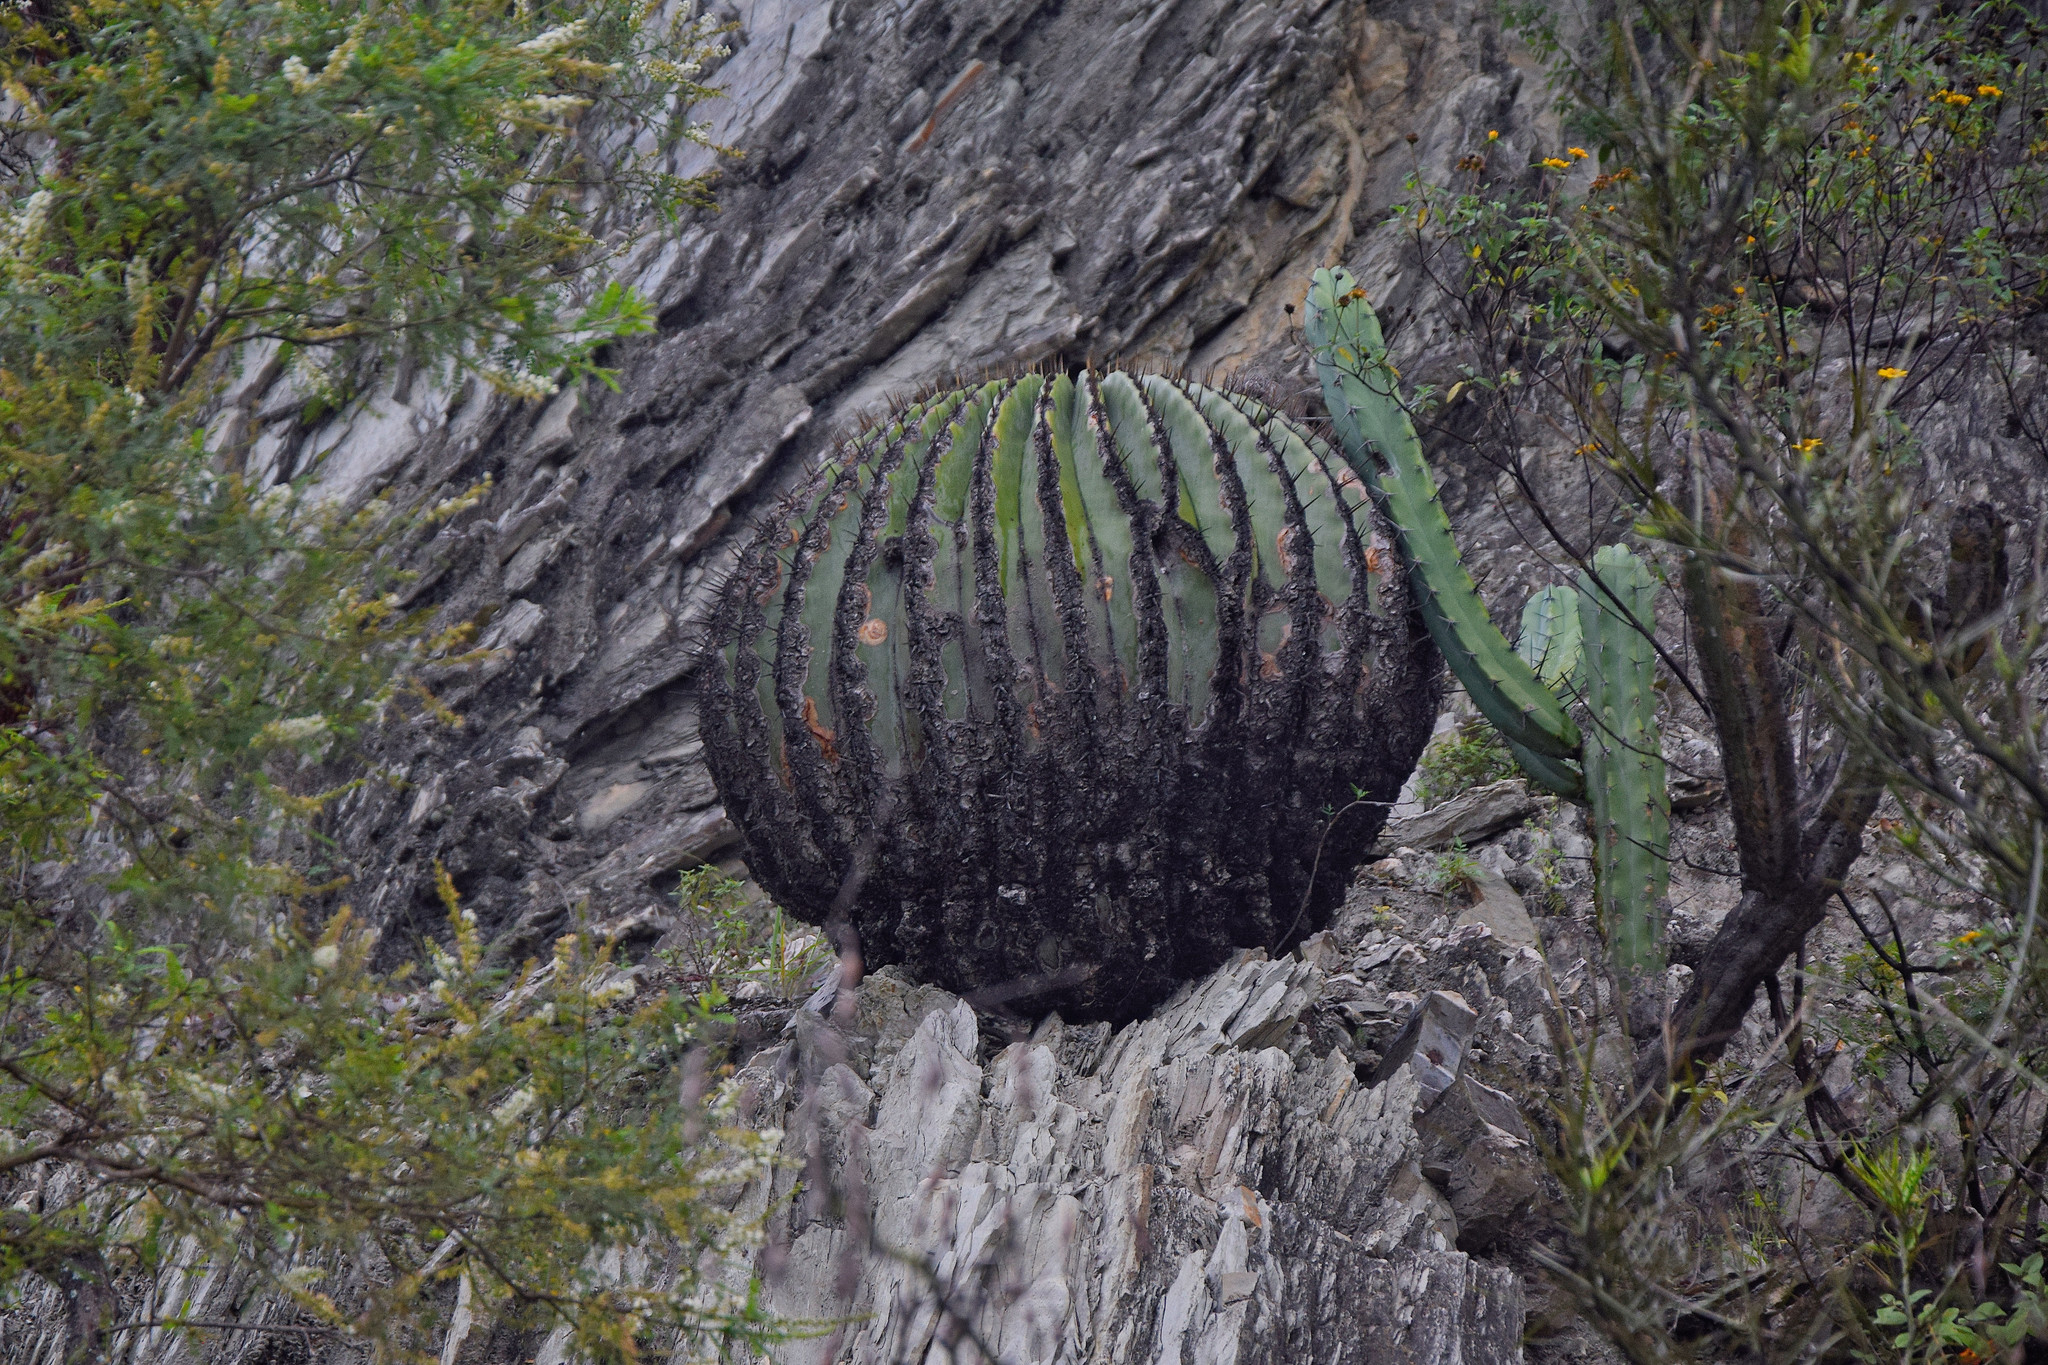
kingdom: Plantae
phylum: Tracheophyta
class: Magnoliopsida
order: Caryophyllales
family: Cactaceae
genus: Echinocactus
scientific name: Echinocactus platyacanthus
